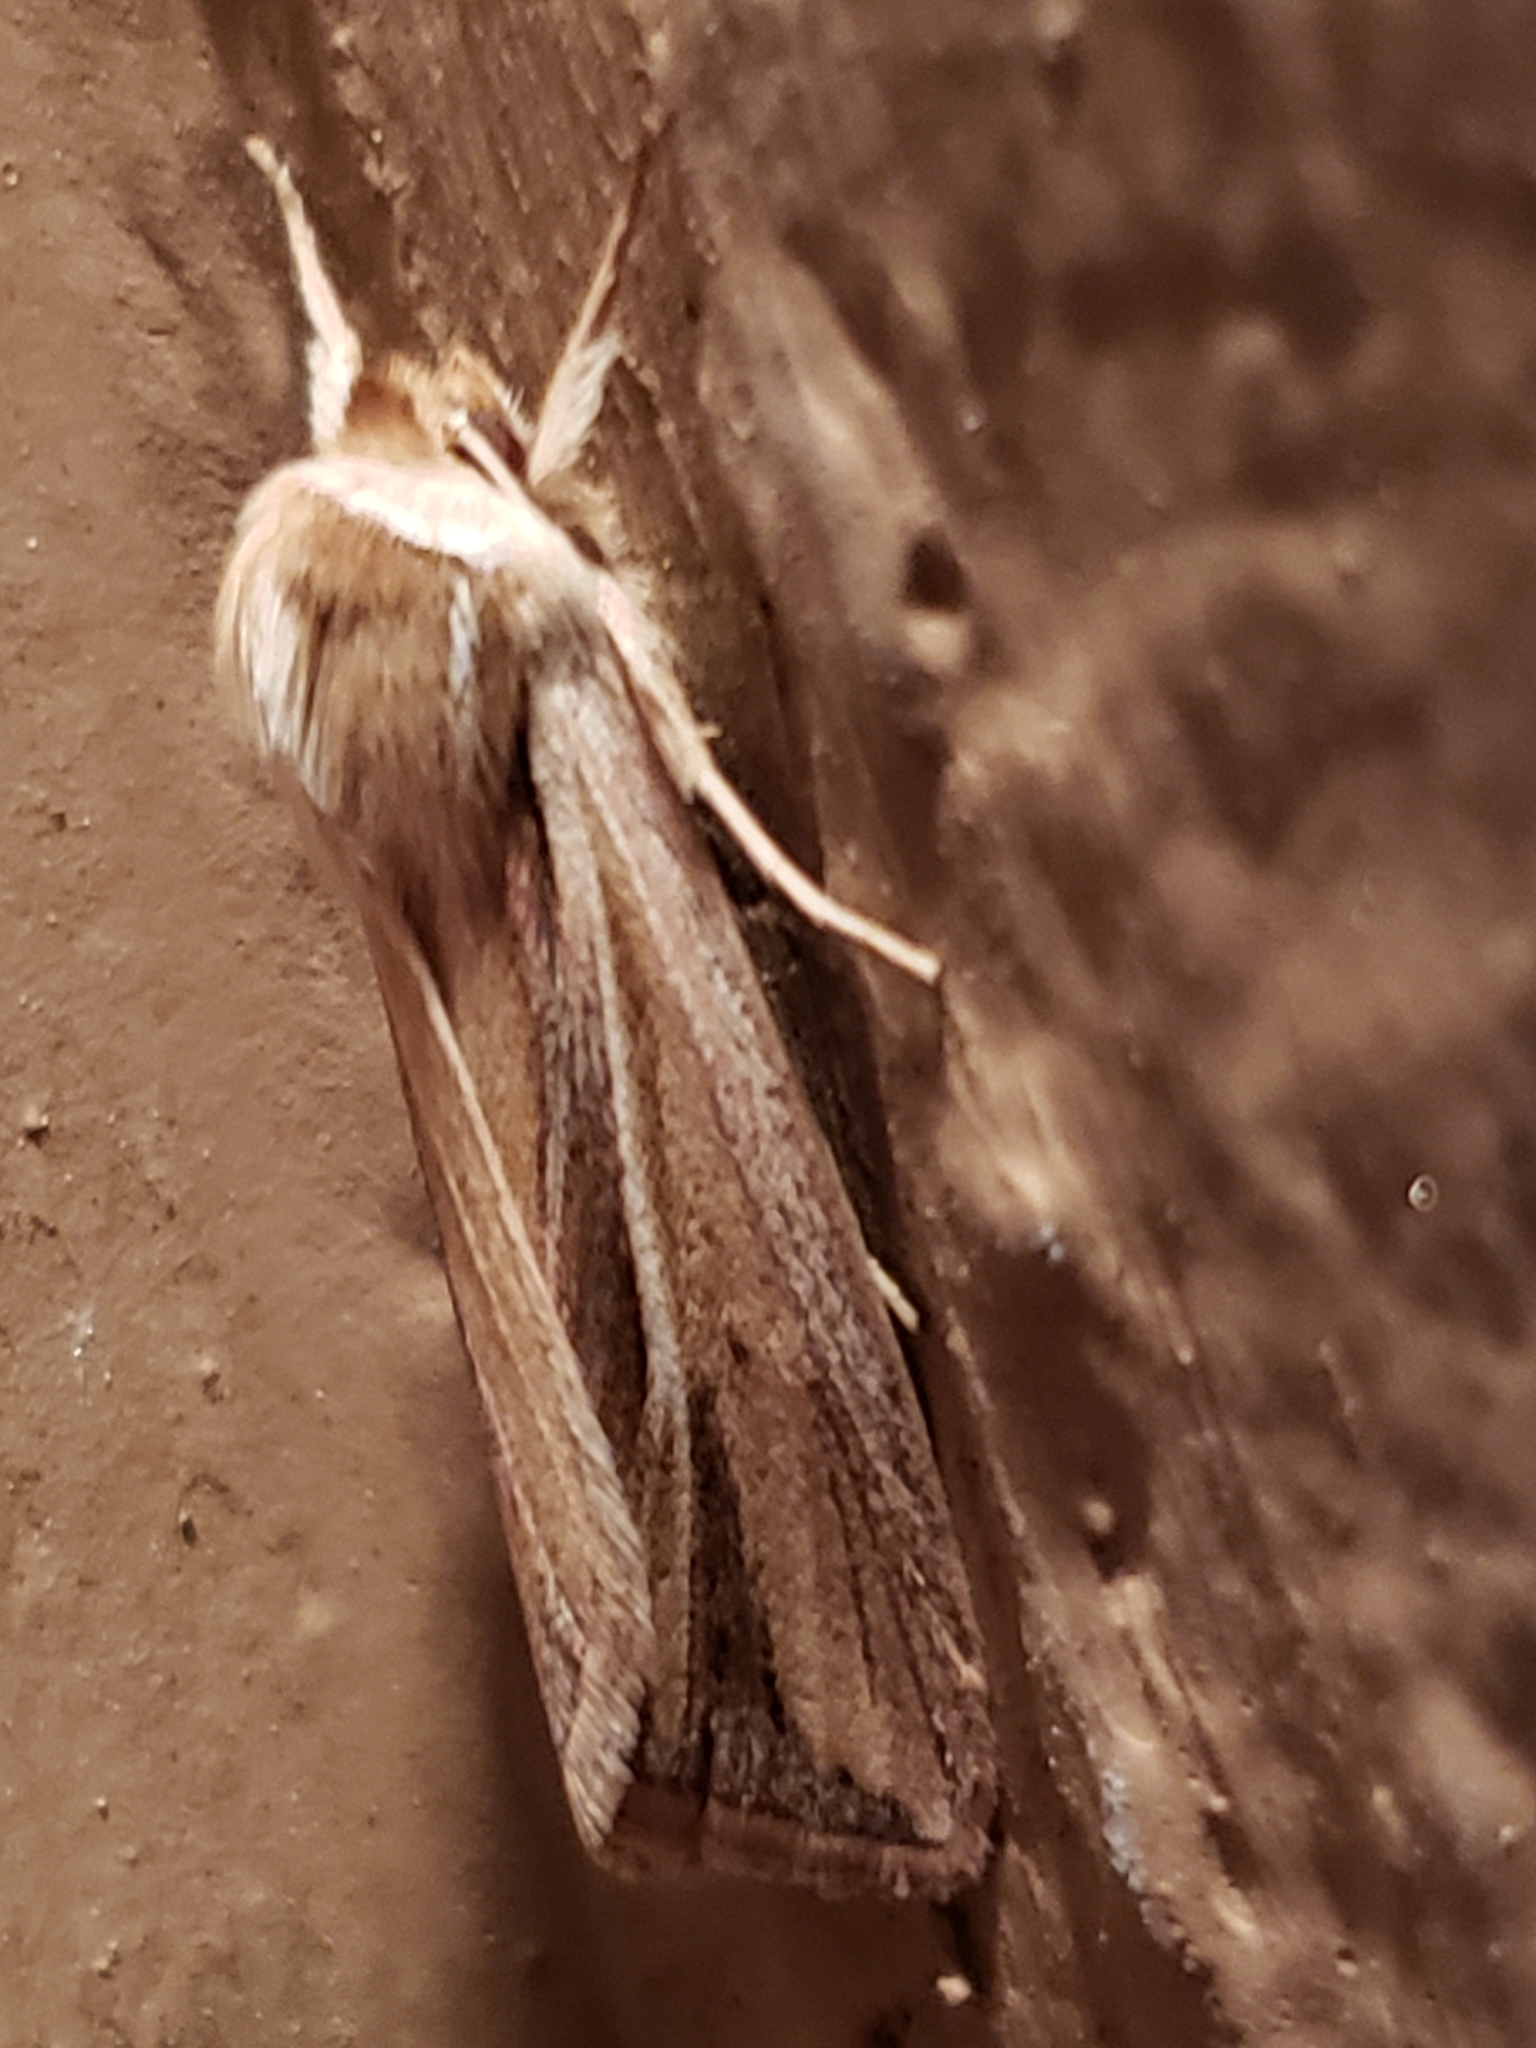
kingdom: Animalia
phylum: Arthropoda
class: Insecta
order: Lepidoptera
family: Noctuidae
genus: Dargida
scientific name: Dargida diffusa
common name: Wheat head armyworm
